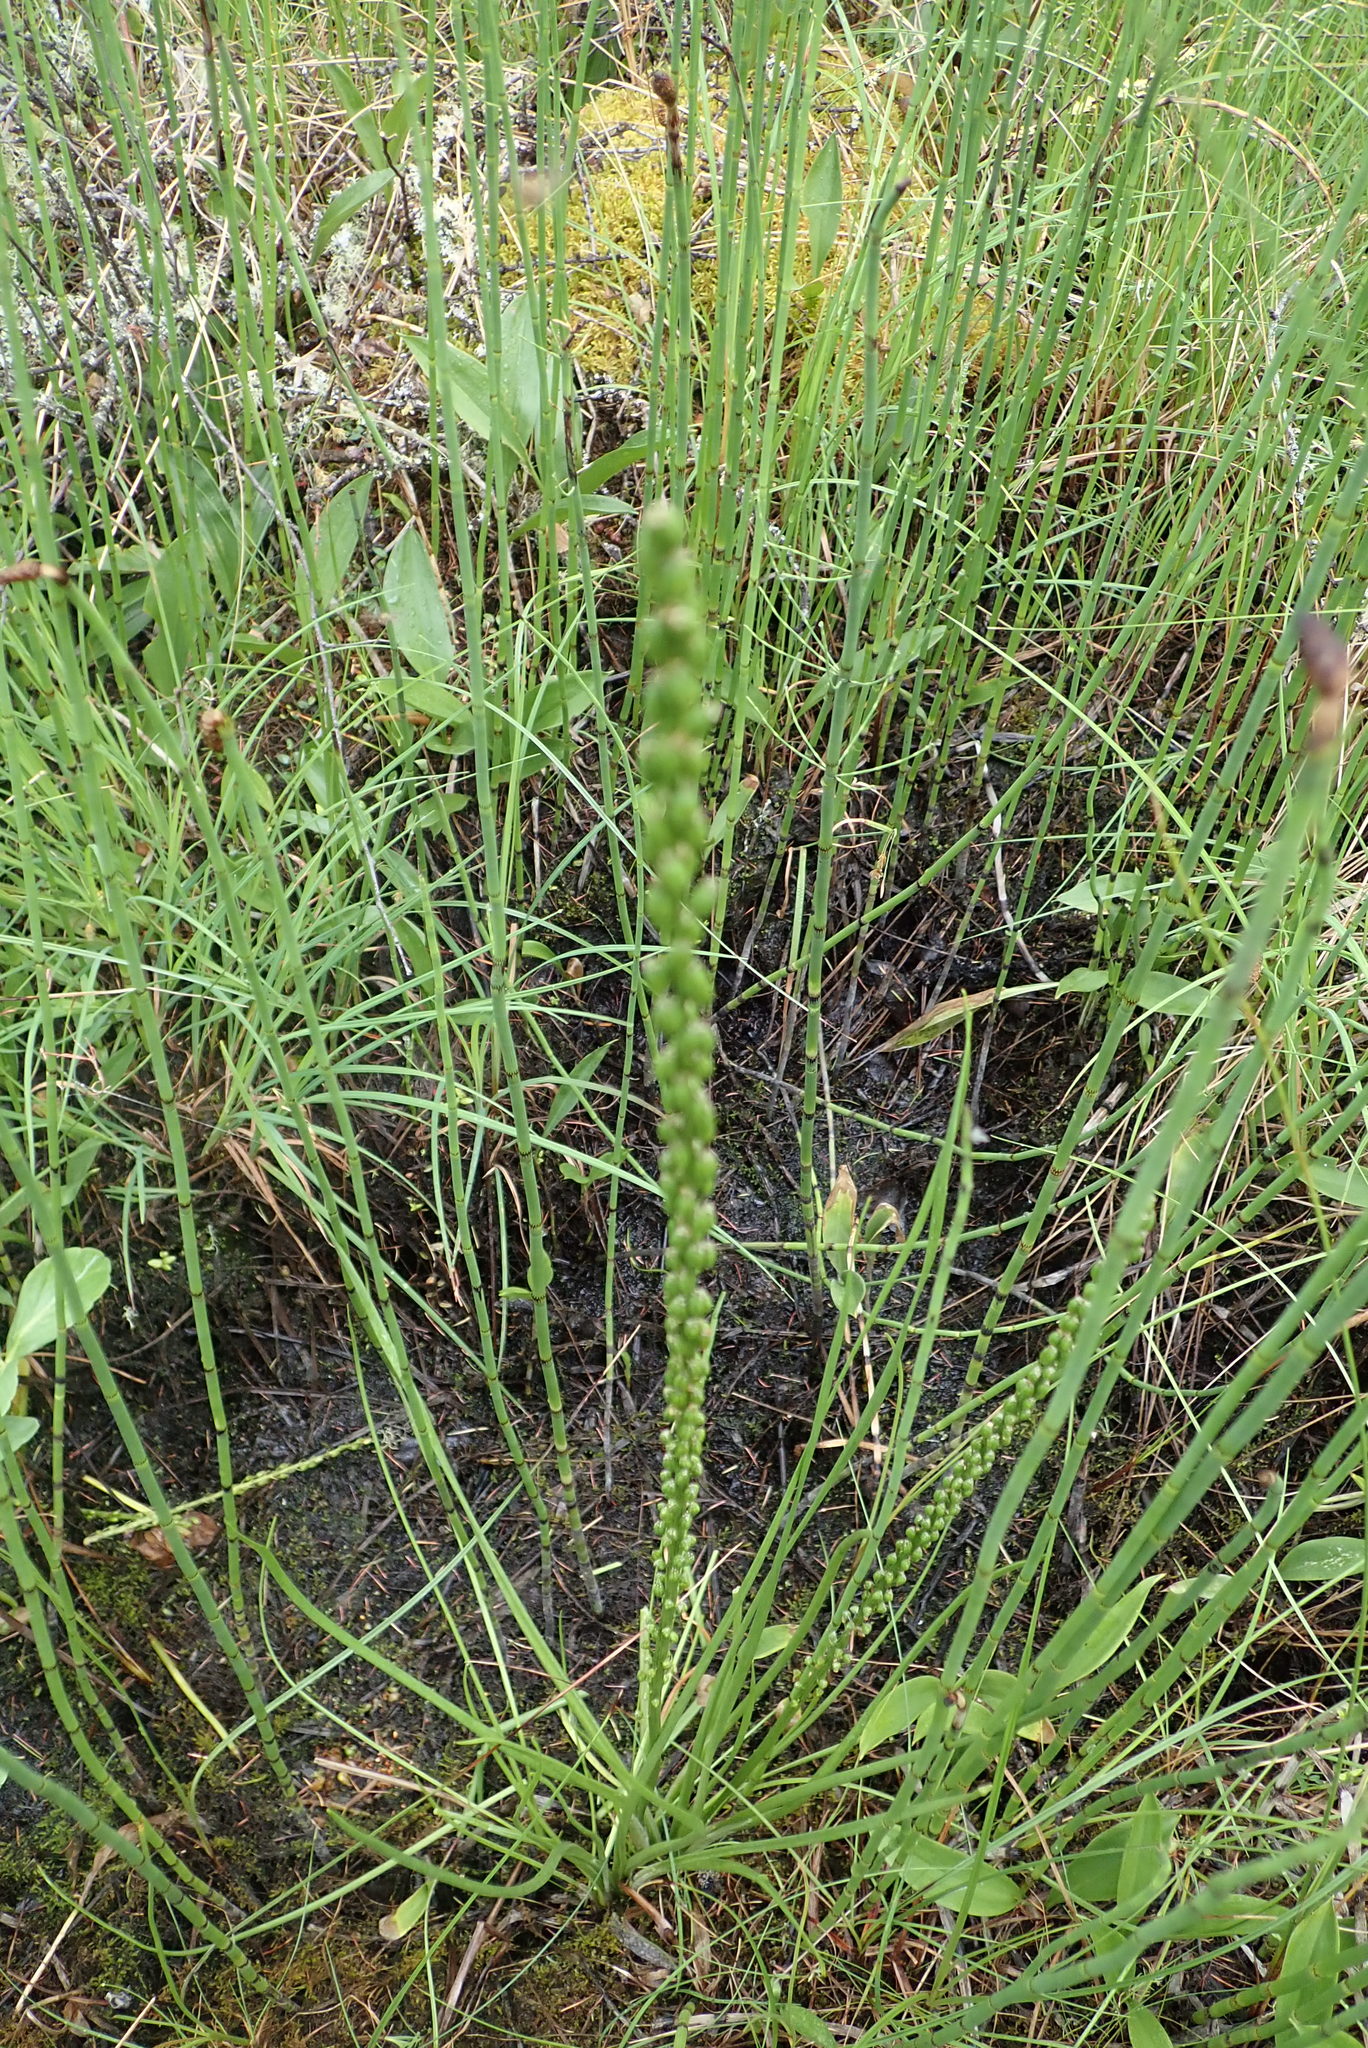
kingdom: Plantae
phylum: Tracheophyta
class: Liliopsida
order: Alismatales
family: Juncaginaceae
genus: Triglochin
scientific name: Triglochin maritima
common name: Sea arrowgrass
